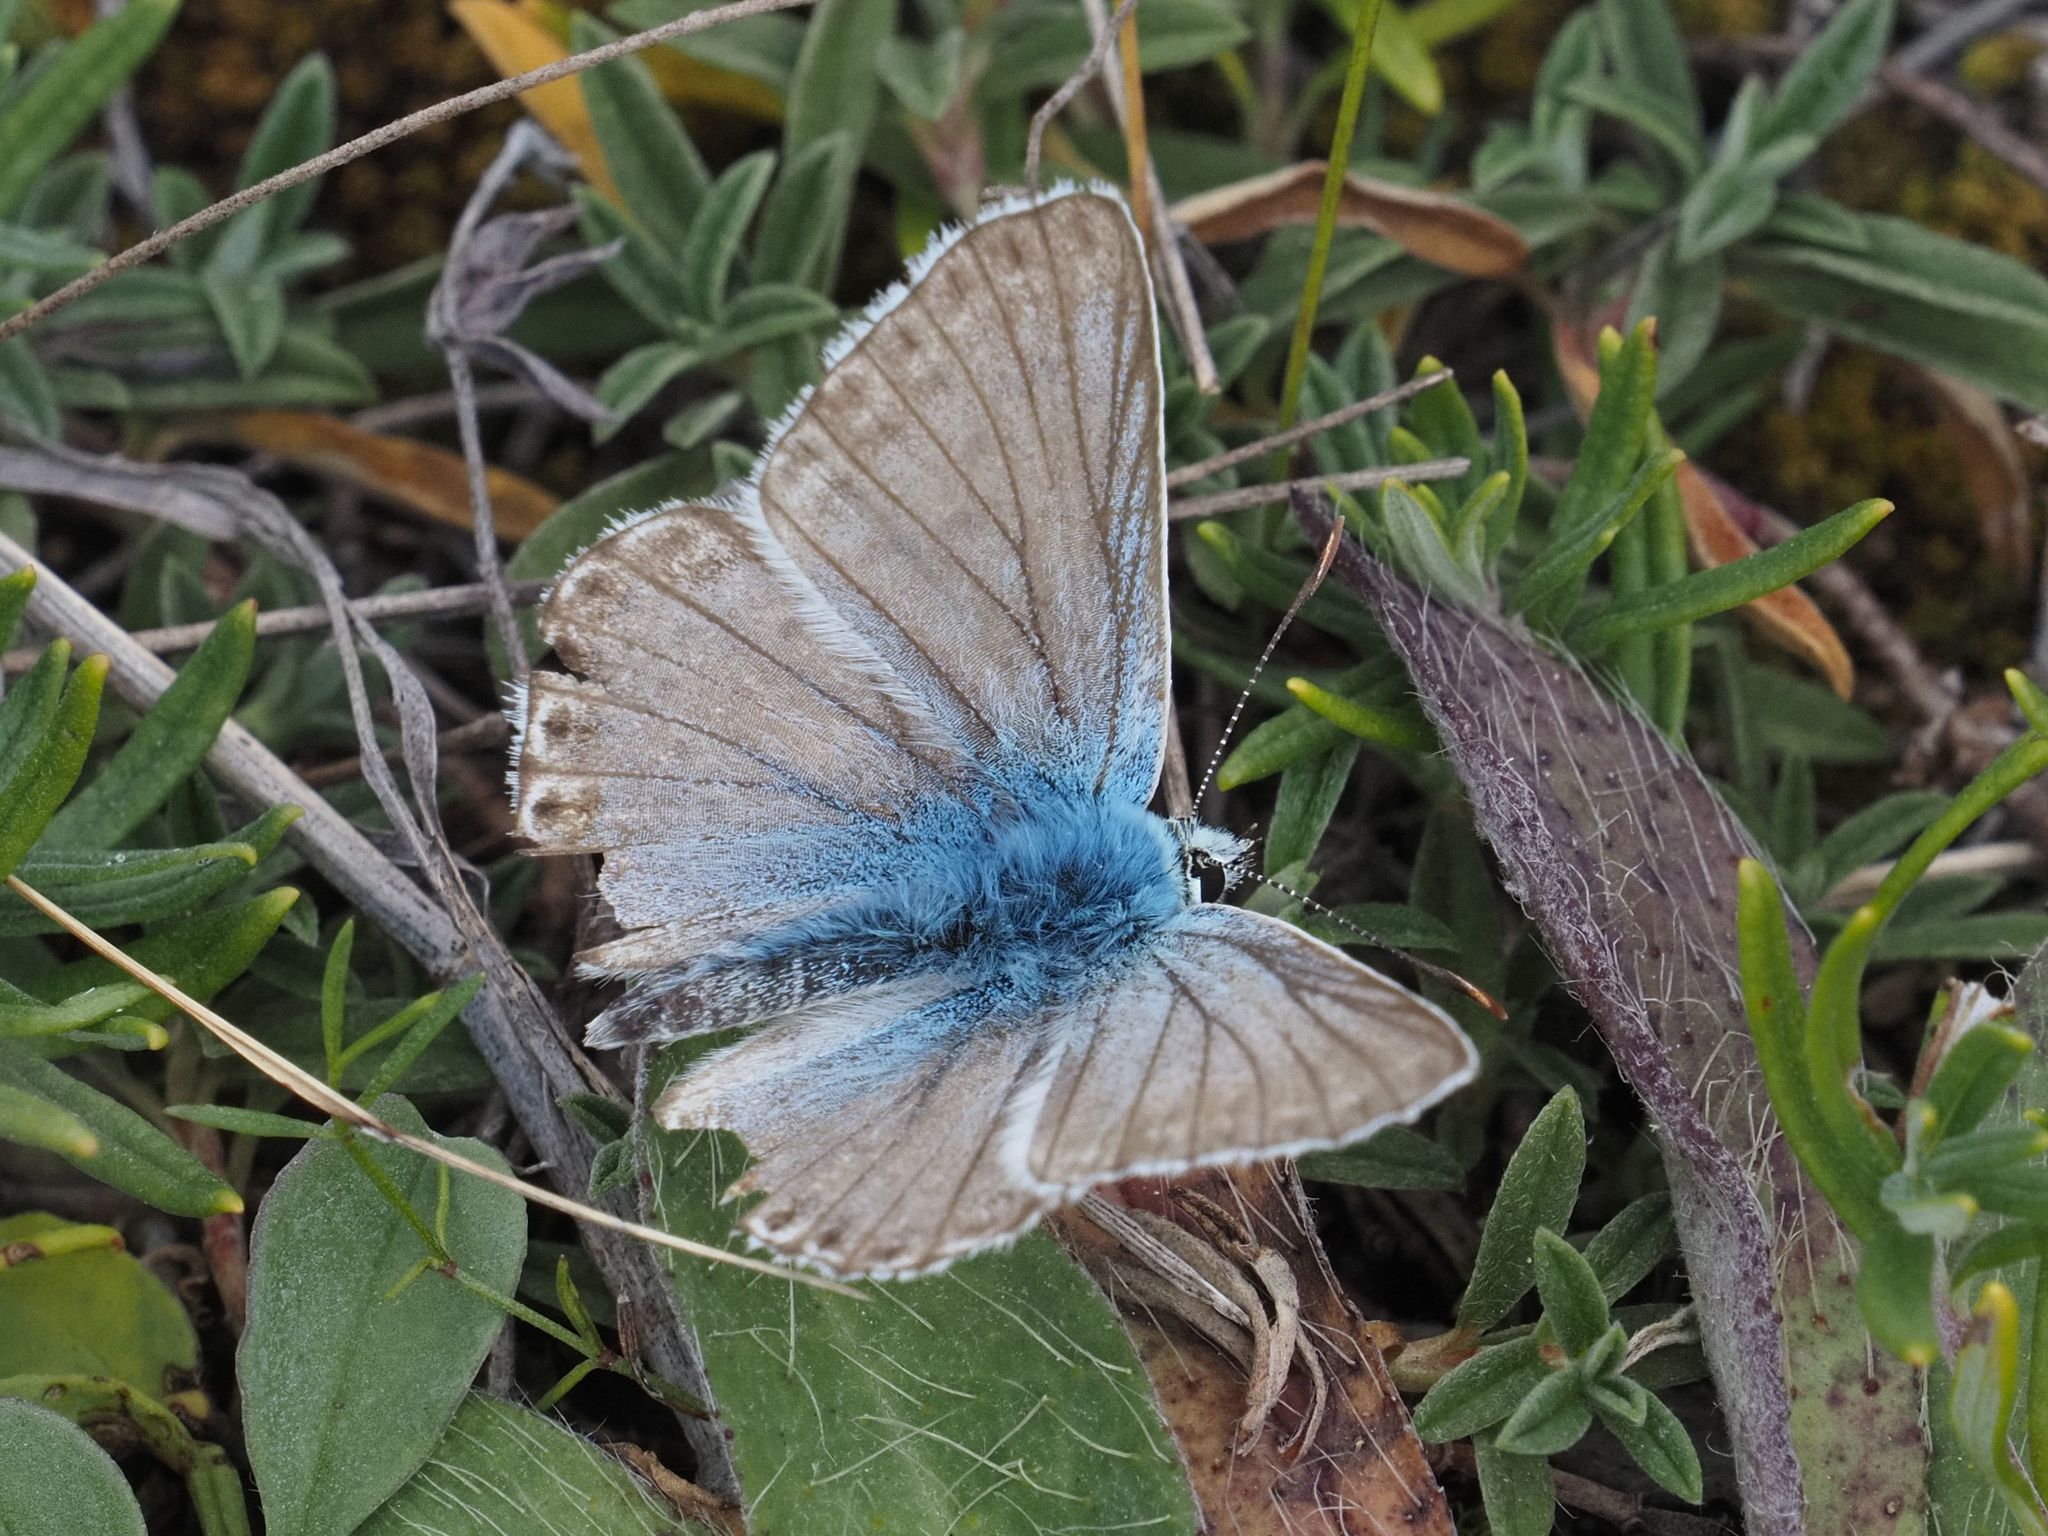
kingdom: Animalia
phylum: Arthropoda
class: Insecta
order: Lepidoptera
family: Lycaenidae
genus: Lysandra
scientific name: Lysandra coridon
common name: Chalkhill blue
